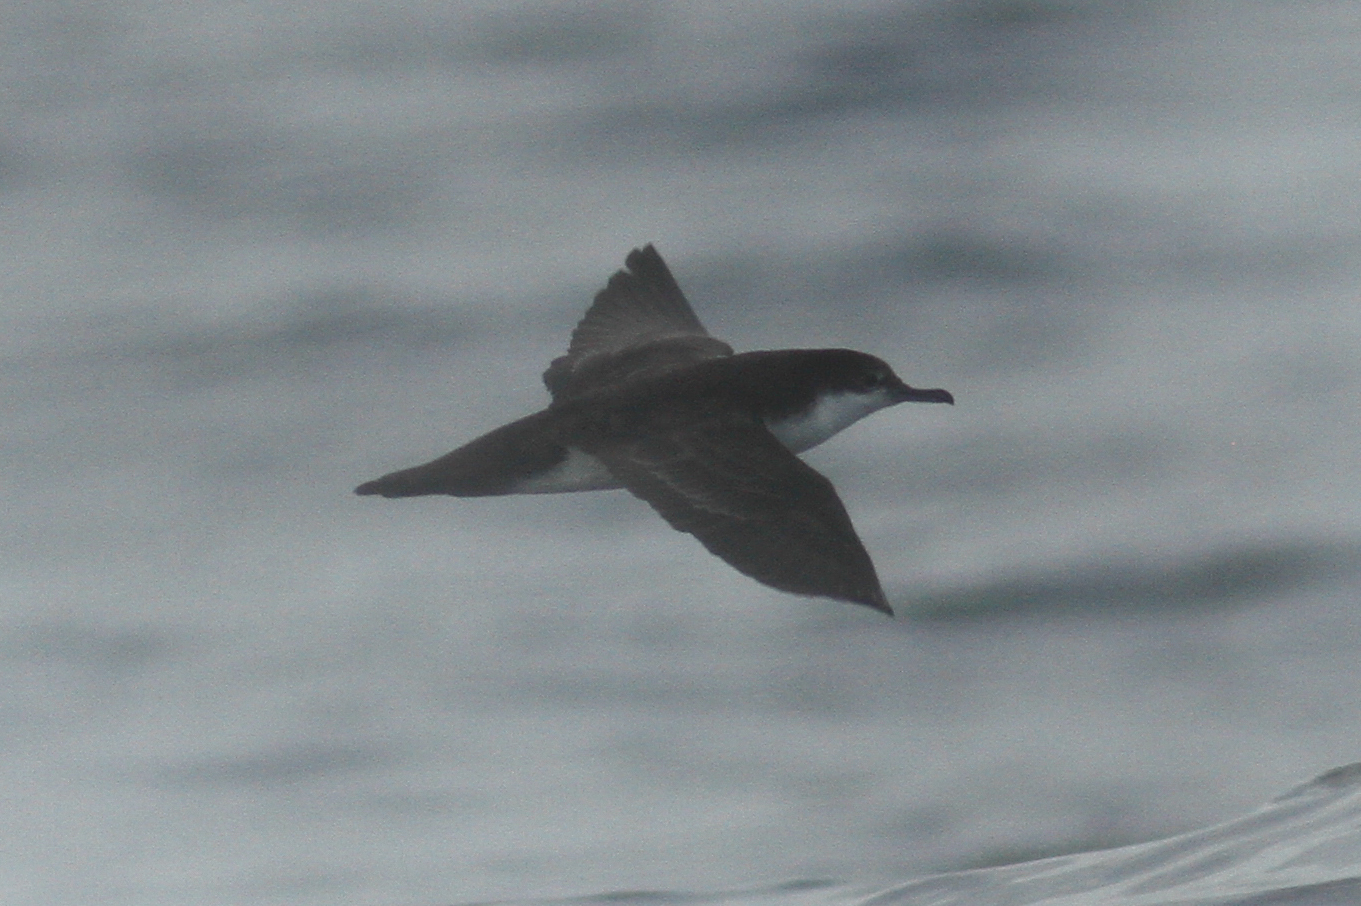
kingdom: Animalia
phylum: Chordata
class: Aves
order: Procellariiformes
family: Procellariidae
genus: Puffinus
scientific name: Puffinus subalaris
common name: Galapagos shearwater
